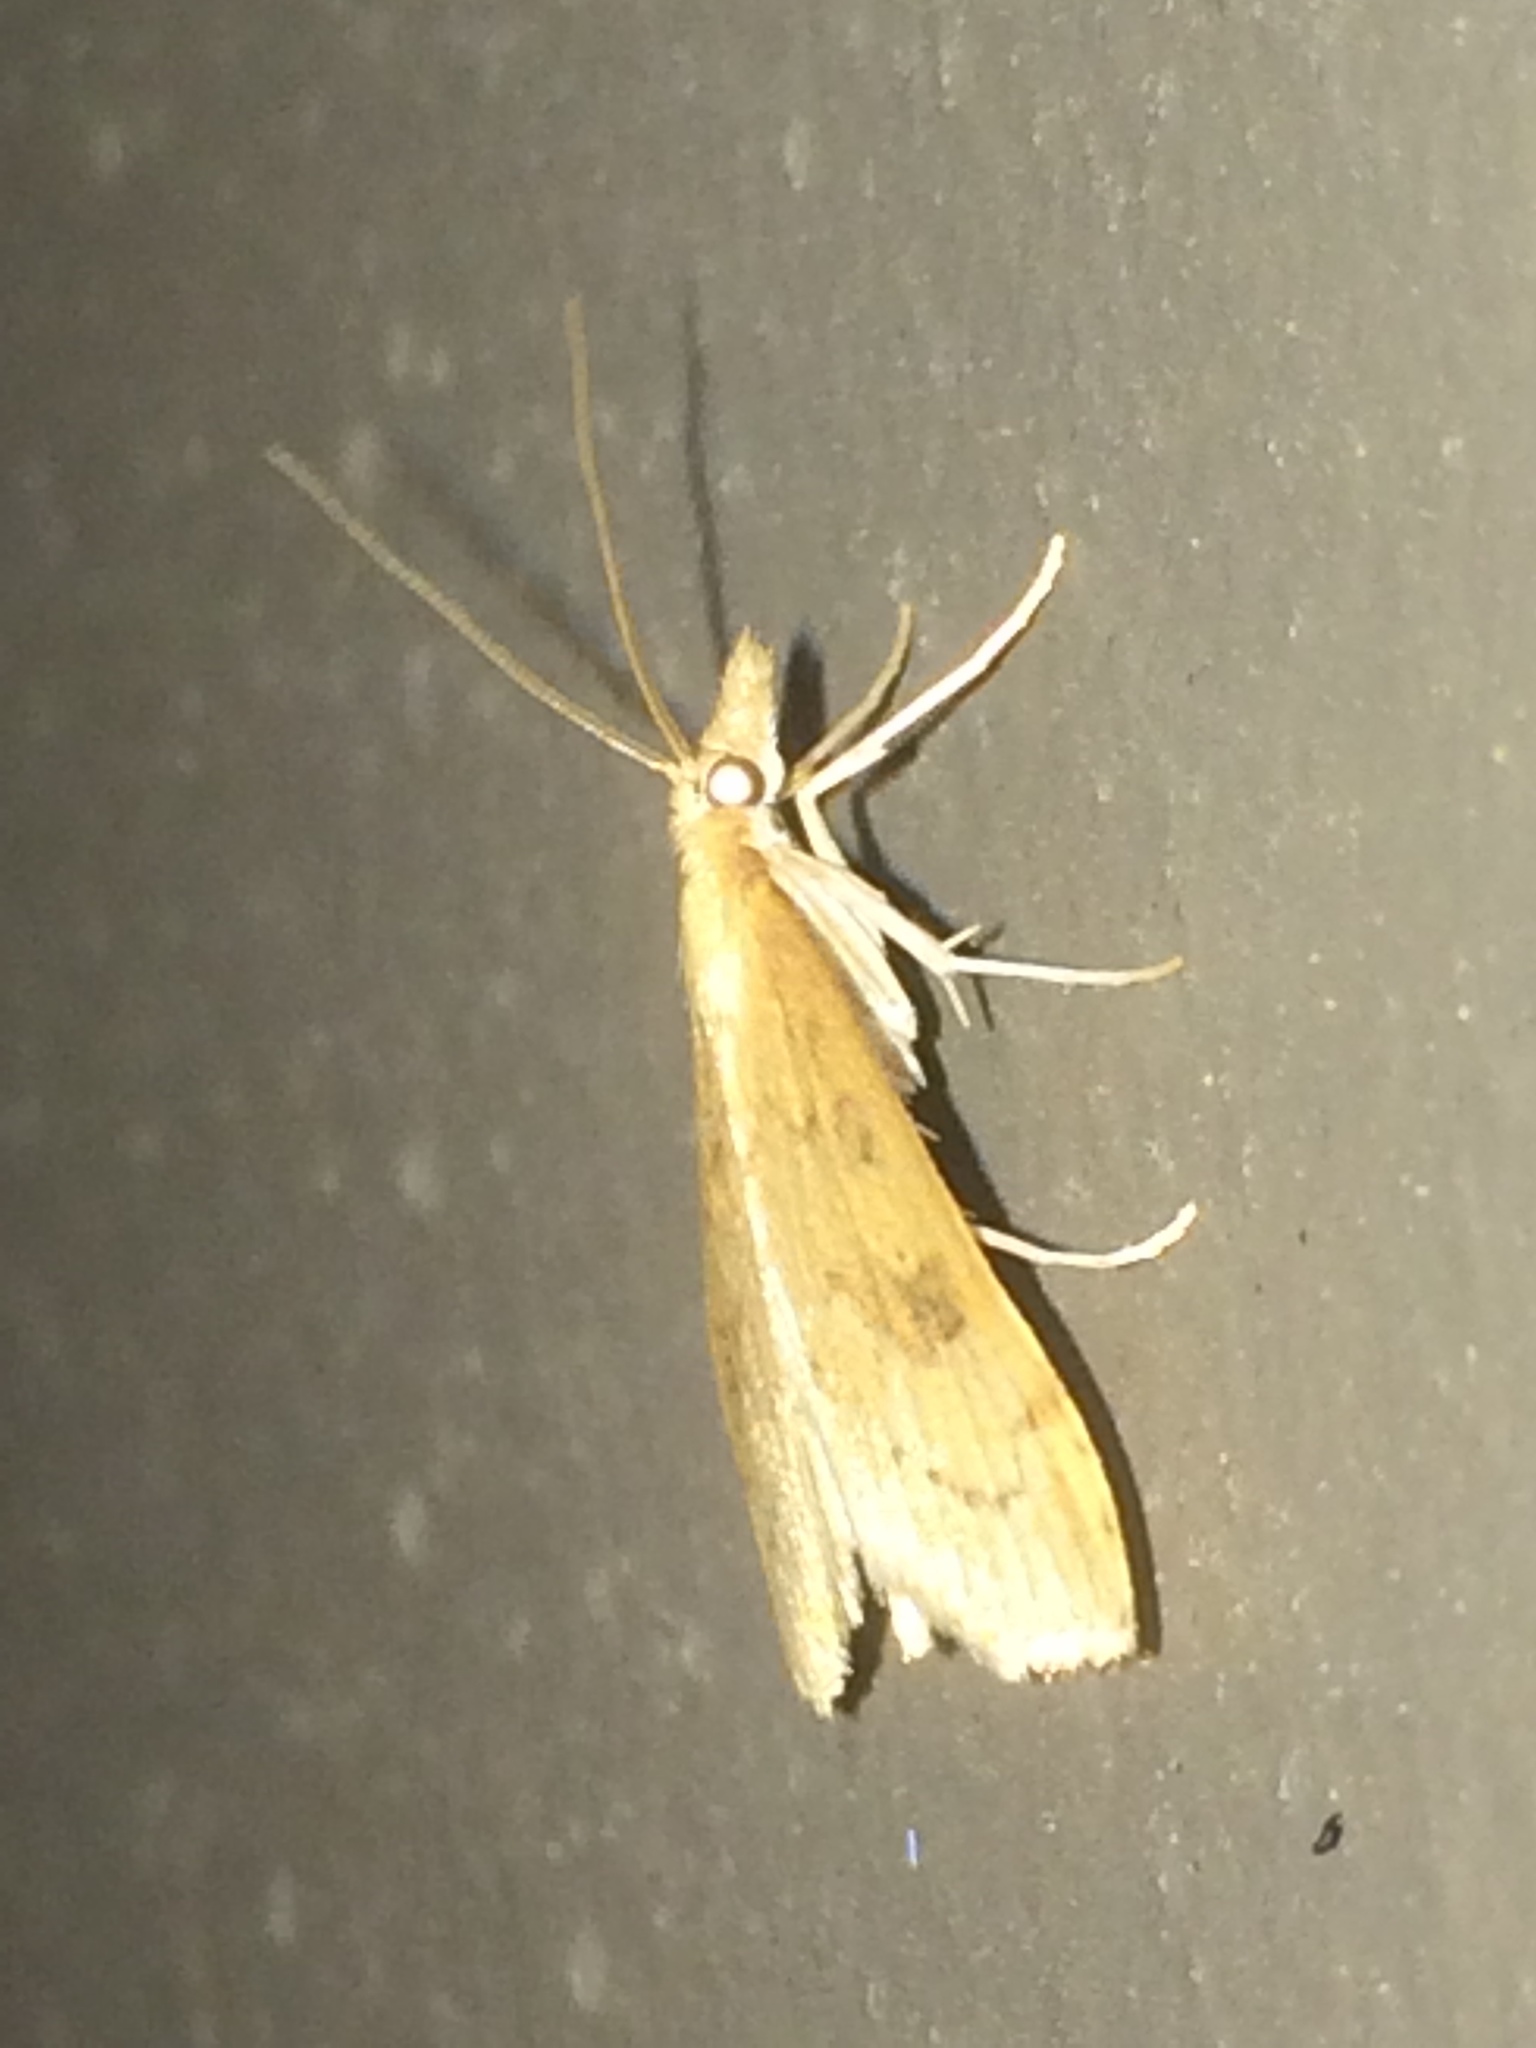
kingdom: Animalia
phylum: Arthropoda
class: Insecta
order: Lepidoptera
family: Crambidae
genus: Udea
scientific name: Udea rubigalis
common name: Celery leaftier moth
